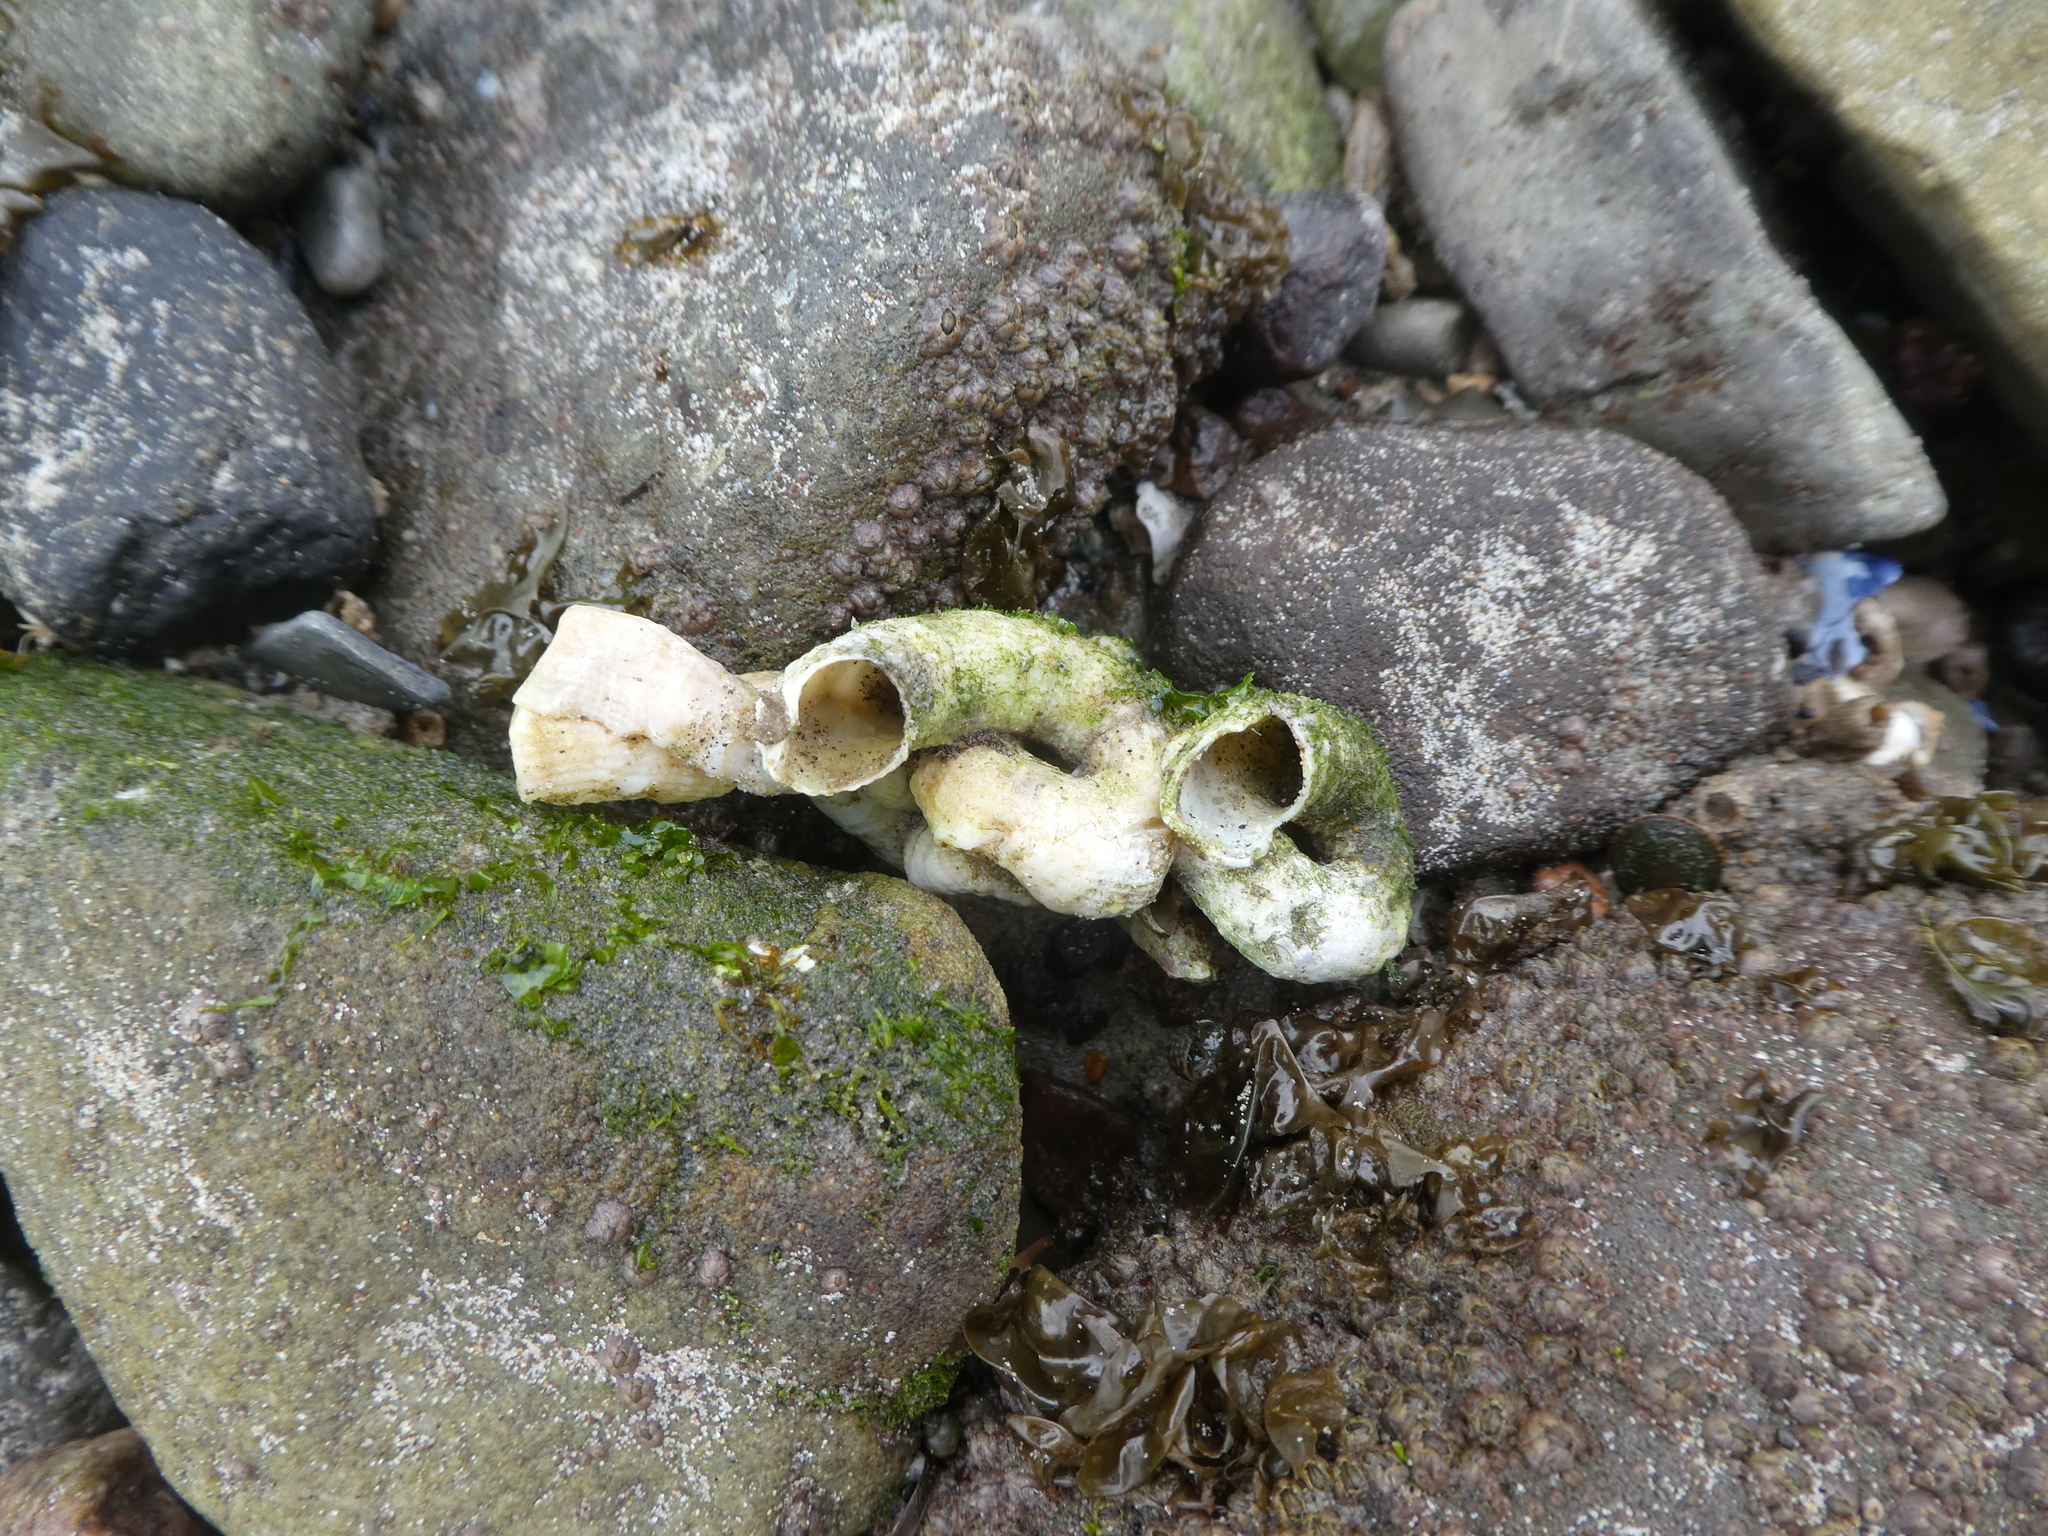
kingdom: Animalia
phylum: Mollusca
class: Gastropoda
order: Littorinimorpha
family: Vermetidae
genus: Thylacodes
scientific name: Thylacodes squamigerus
